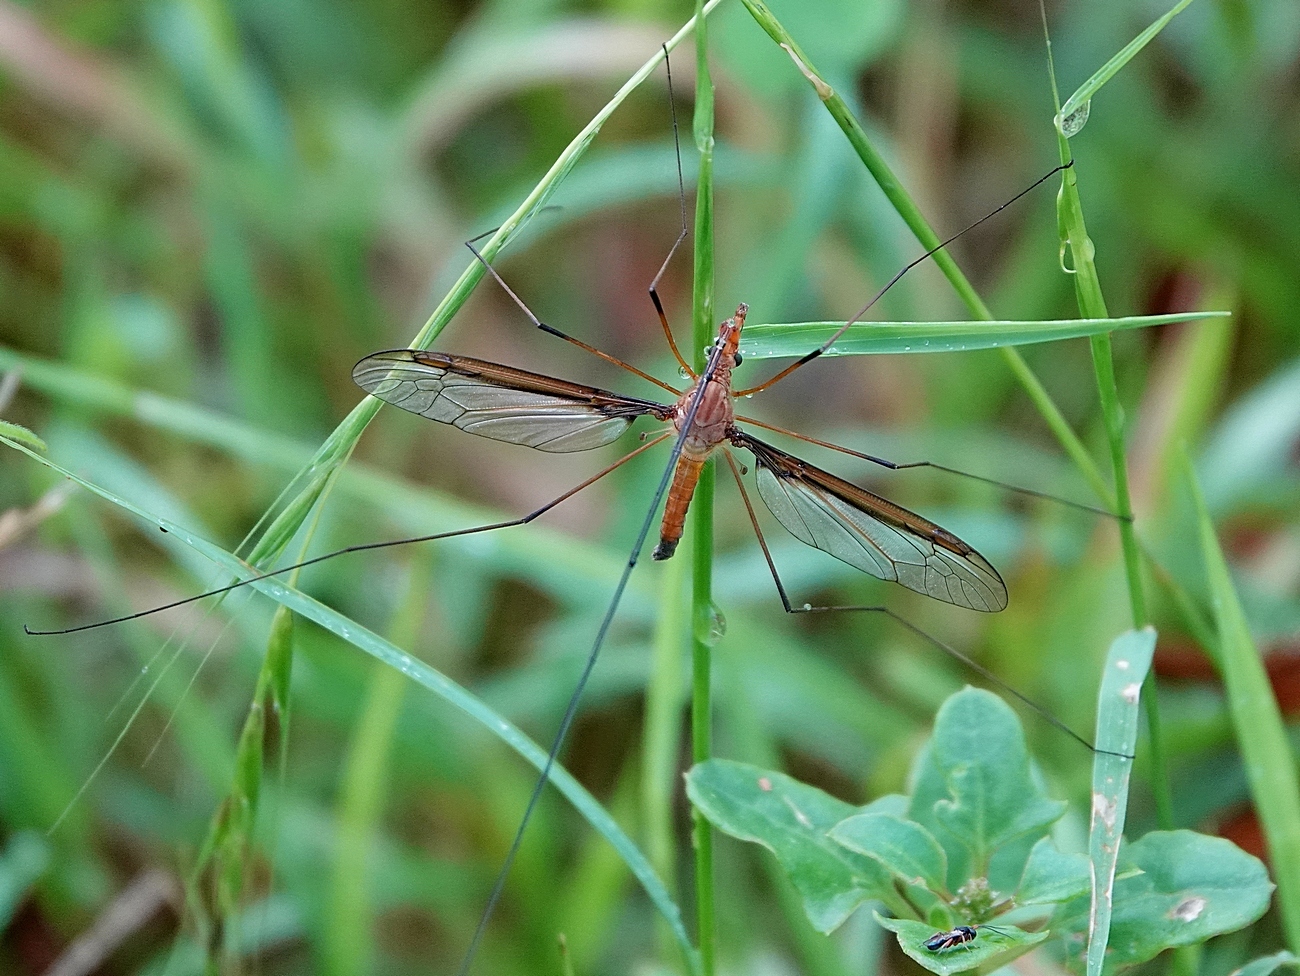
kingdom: Animalia
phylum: Arthropoda
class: Insecta
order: Diptera
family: Tipulidae
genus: Leptotarsus
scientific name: Leptotarsus costalis
